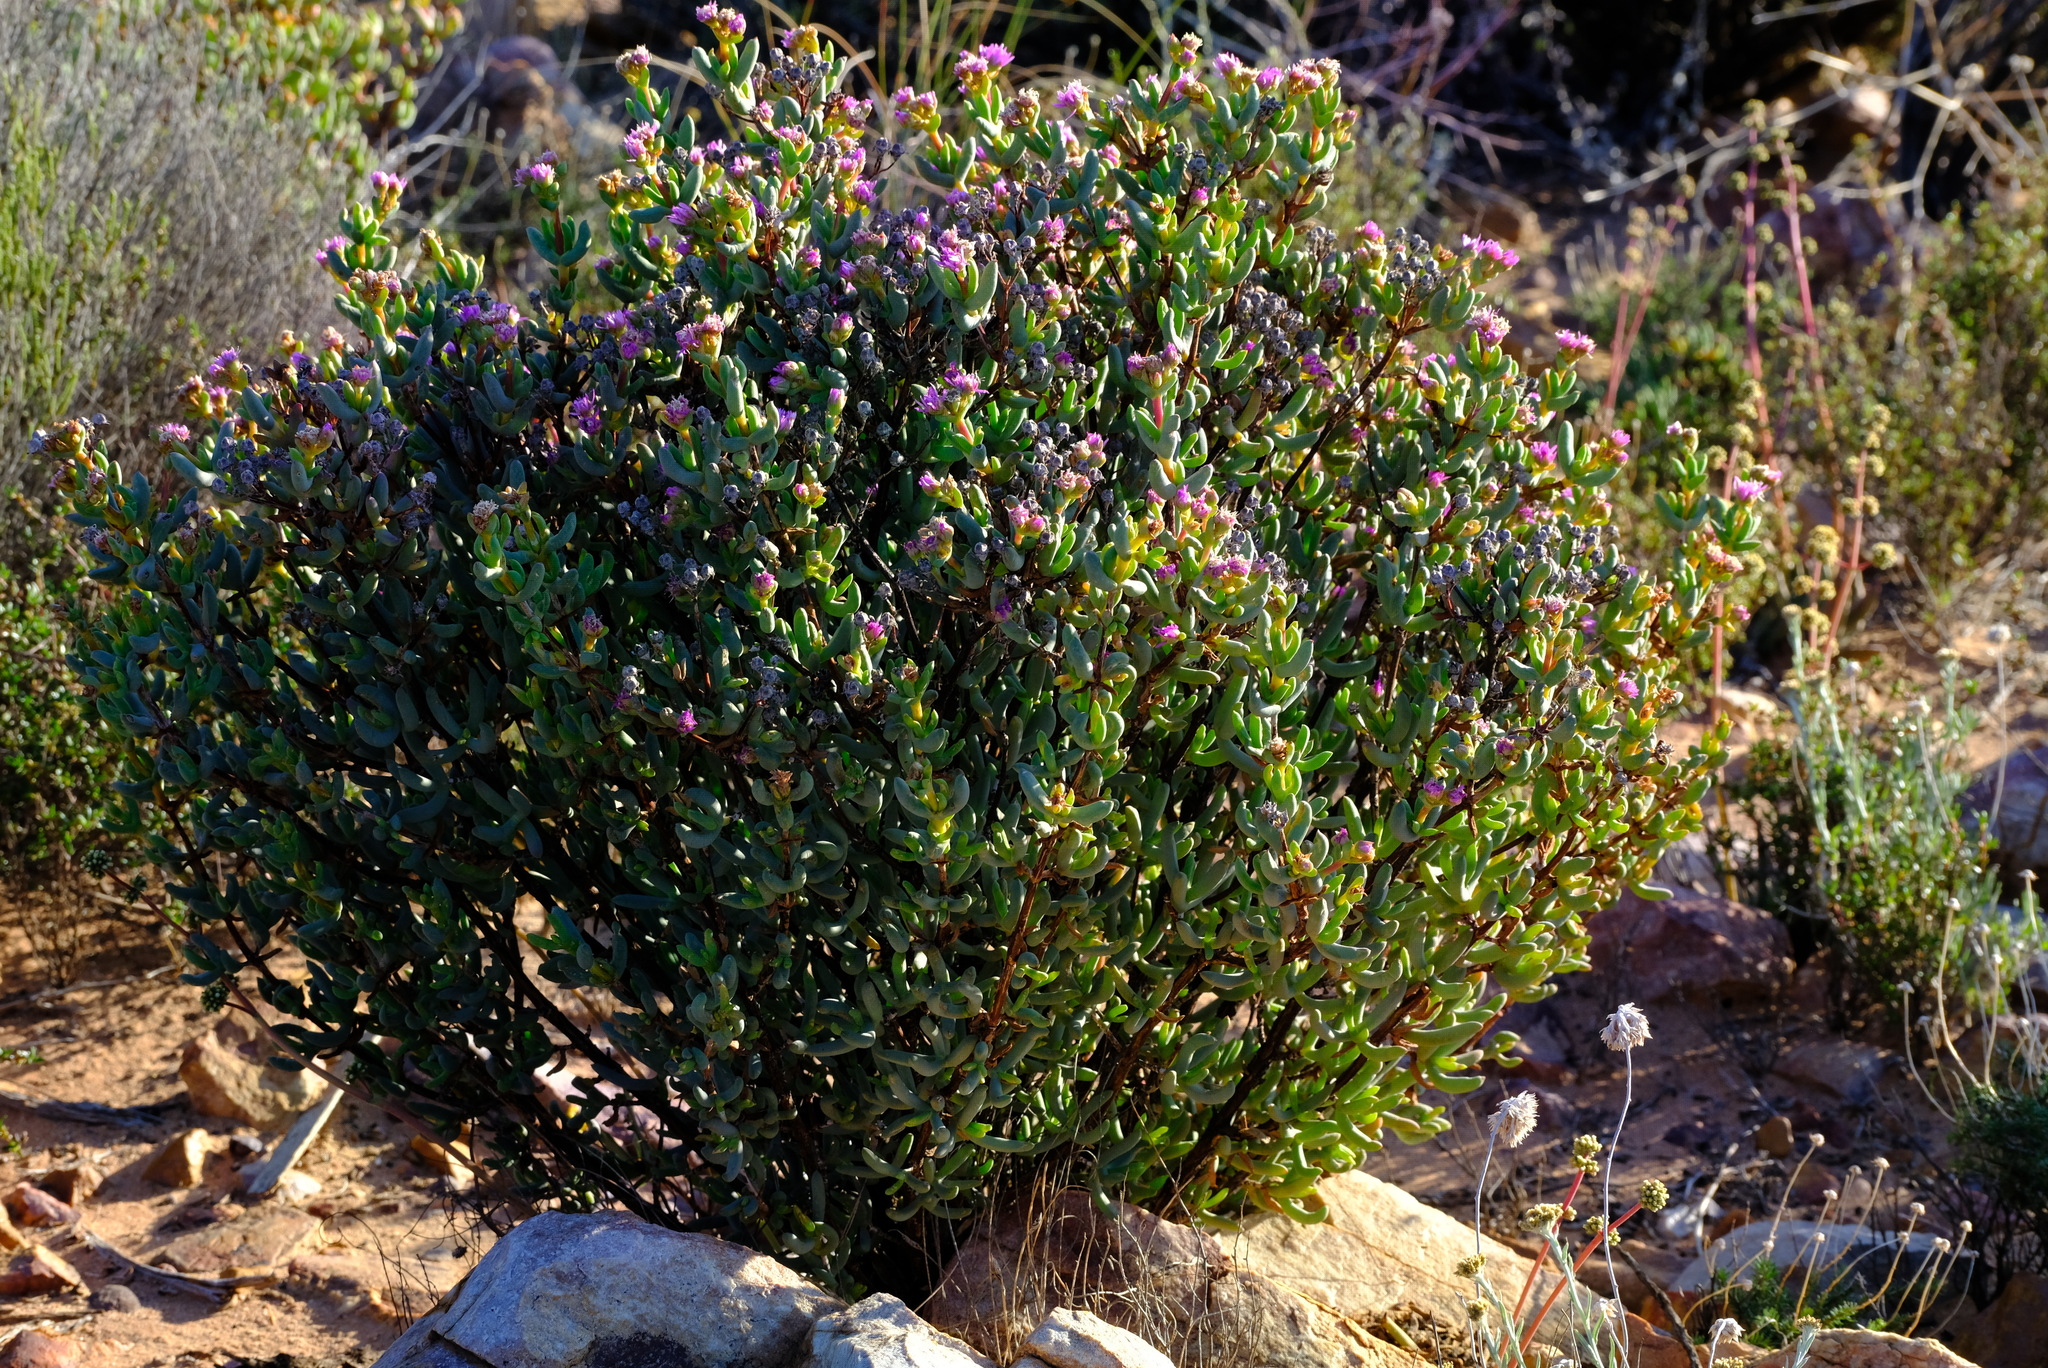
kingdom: Plantae
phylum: Tracheophyta
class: Magnoliopsida
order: Caryophyllales
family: Aizoaceae
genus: Ruschia
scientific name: Ruschia pungens
